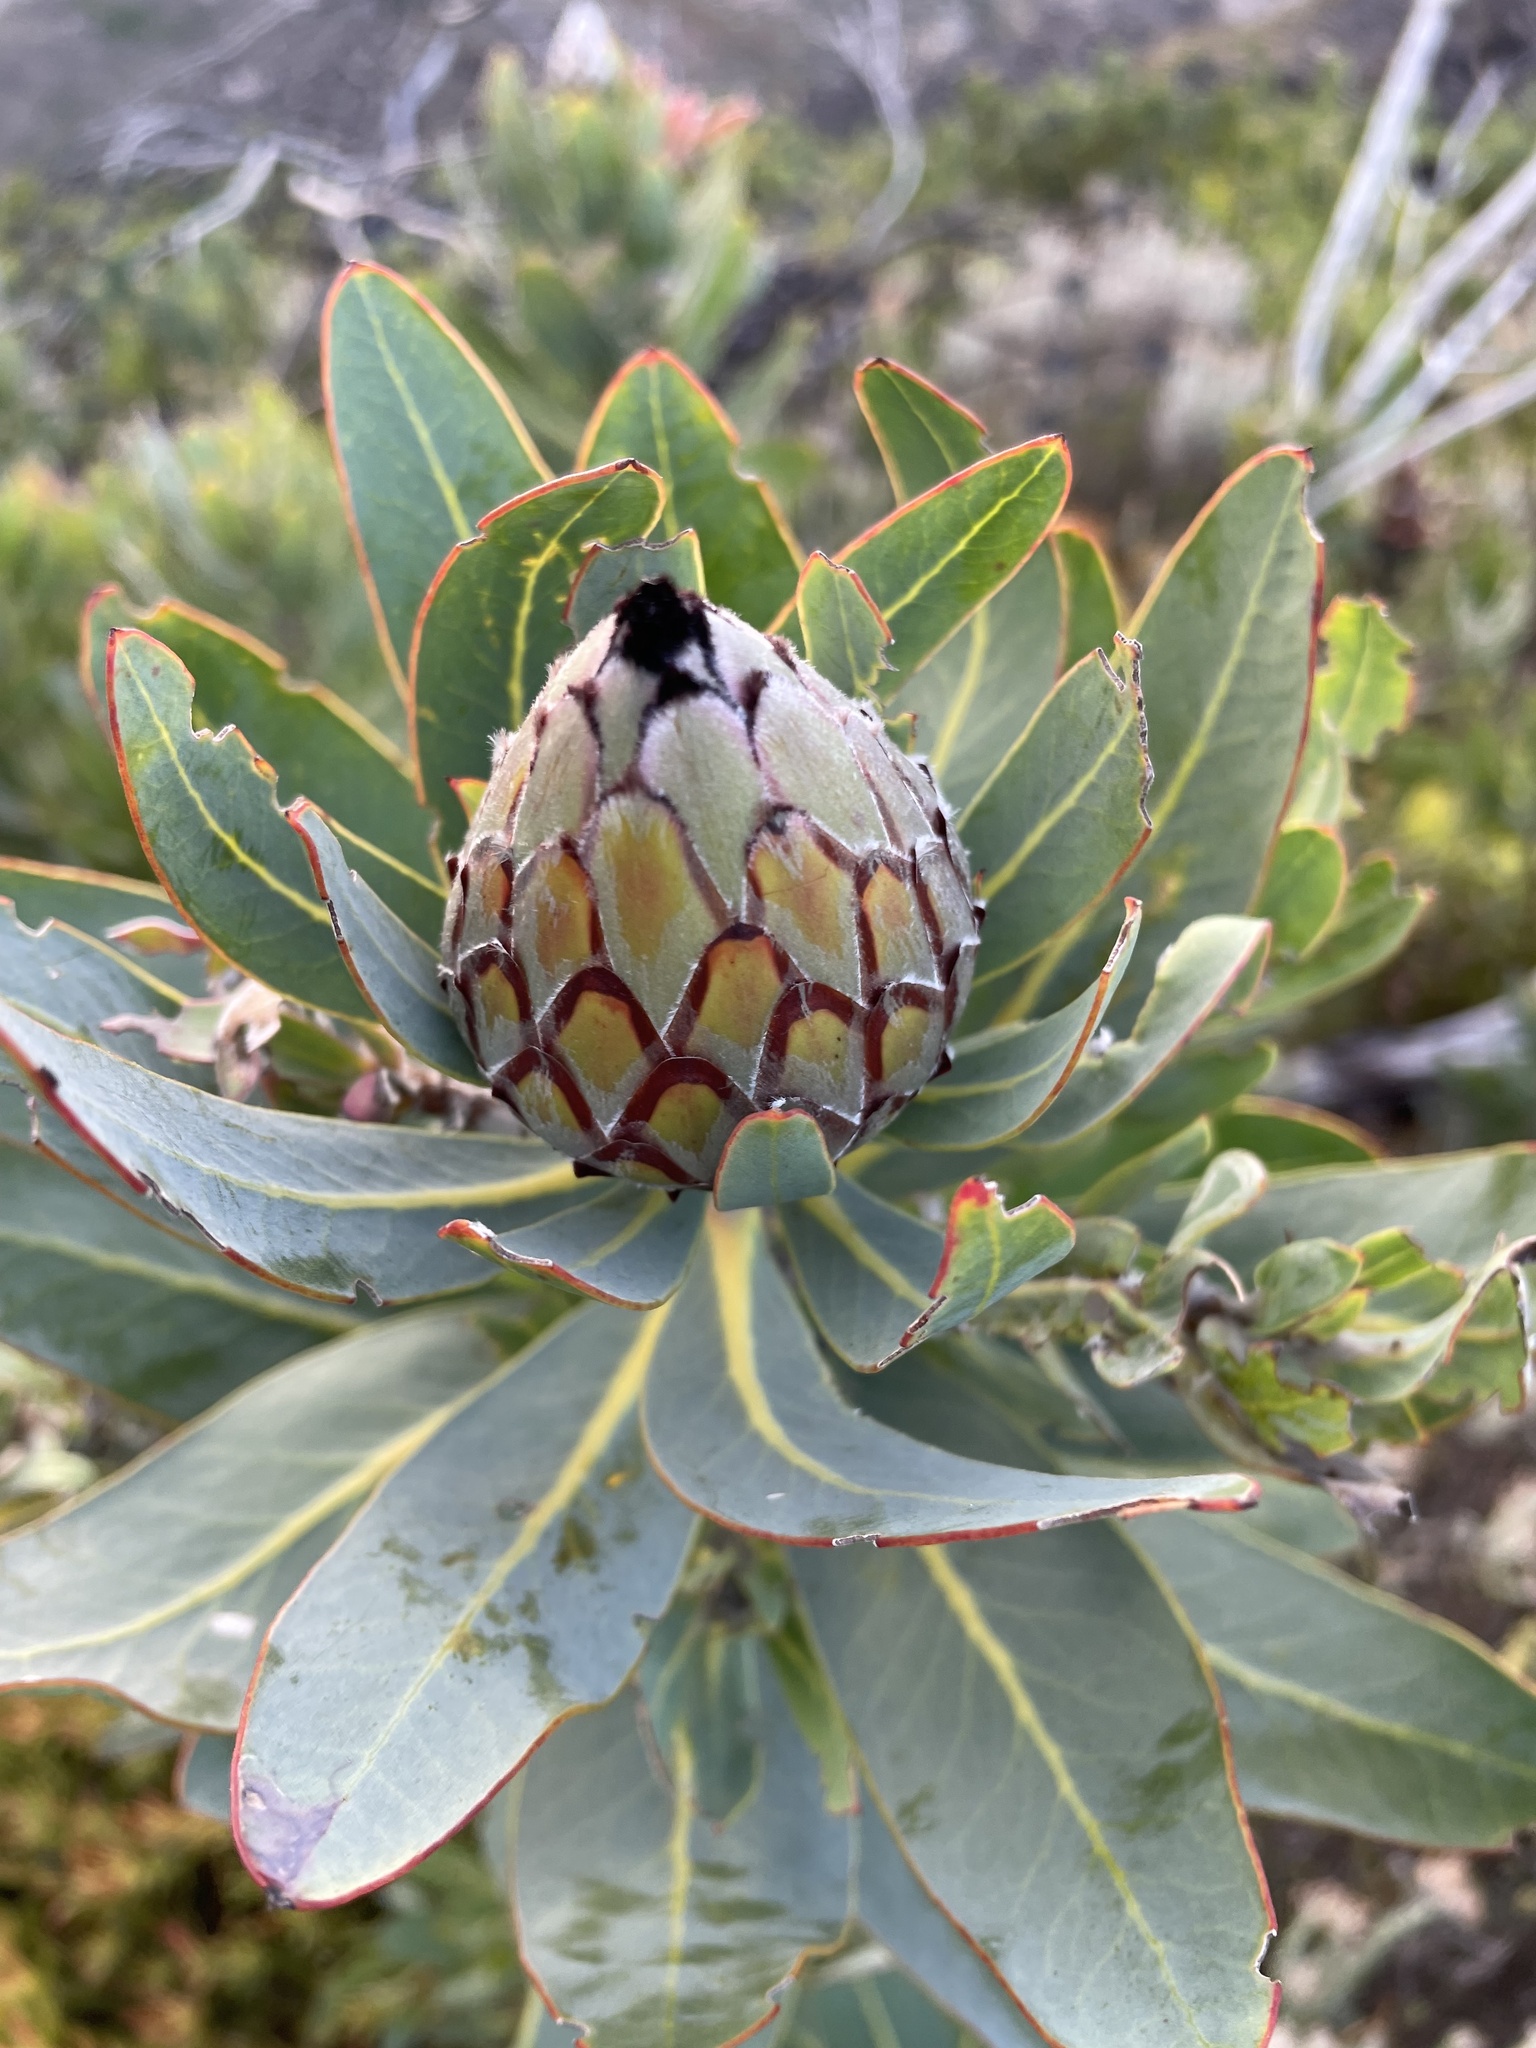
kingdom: Plantae
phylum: Tracheophyta
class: Magnoliopsida
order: Proteales
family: Proteaceae
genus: Protea
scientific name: Protea laurifolia
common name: Grey-leaf sugarbsh
